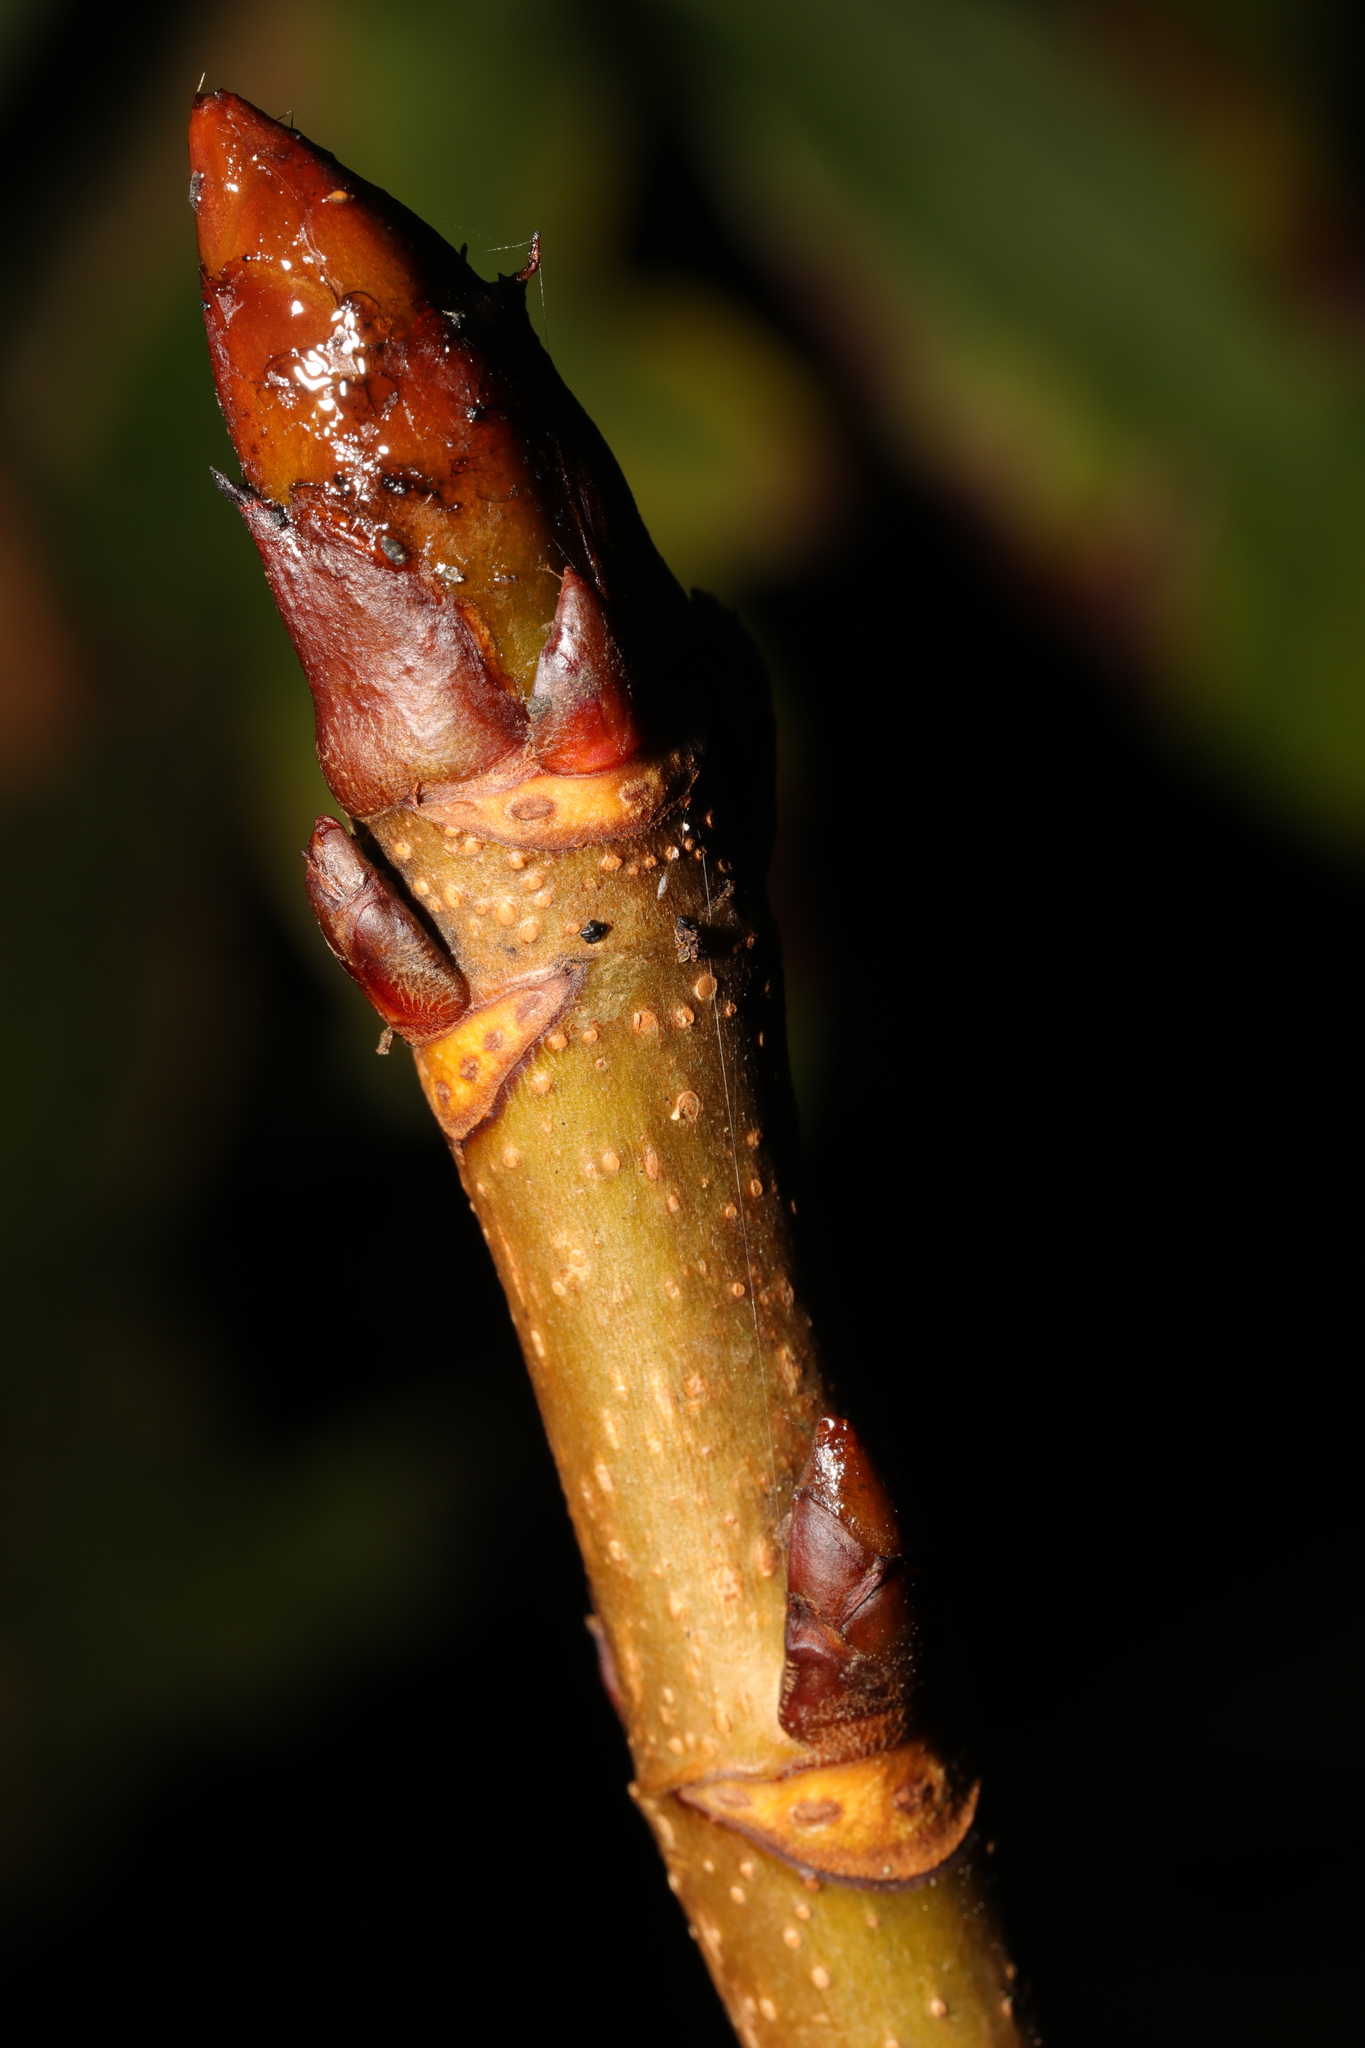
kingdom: Plantae
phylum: Tracheophyta
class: Magnoliopsida
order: Sapindales
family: Sapindaceae
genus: Aesculus
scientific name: Aesculus hippocastanum
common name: Horse-chestnut
